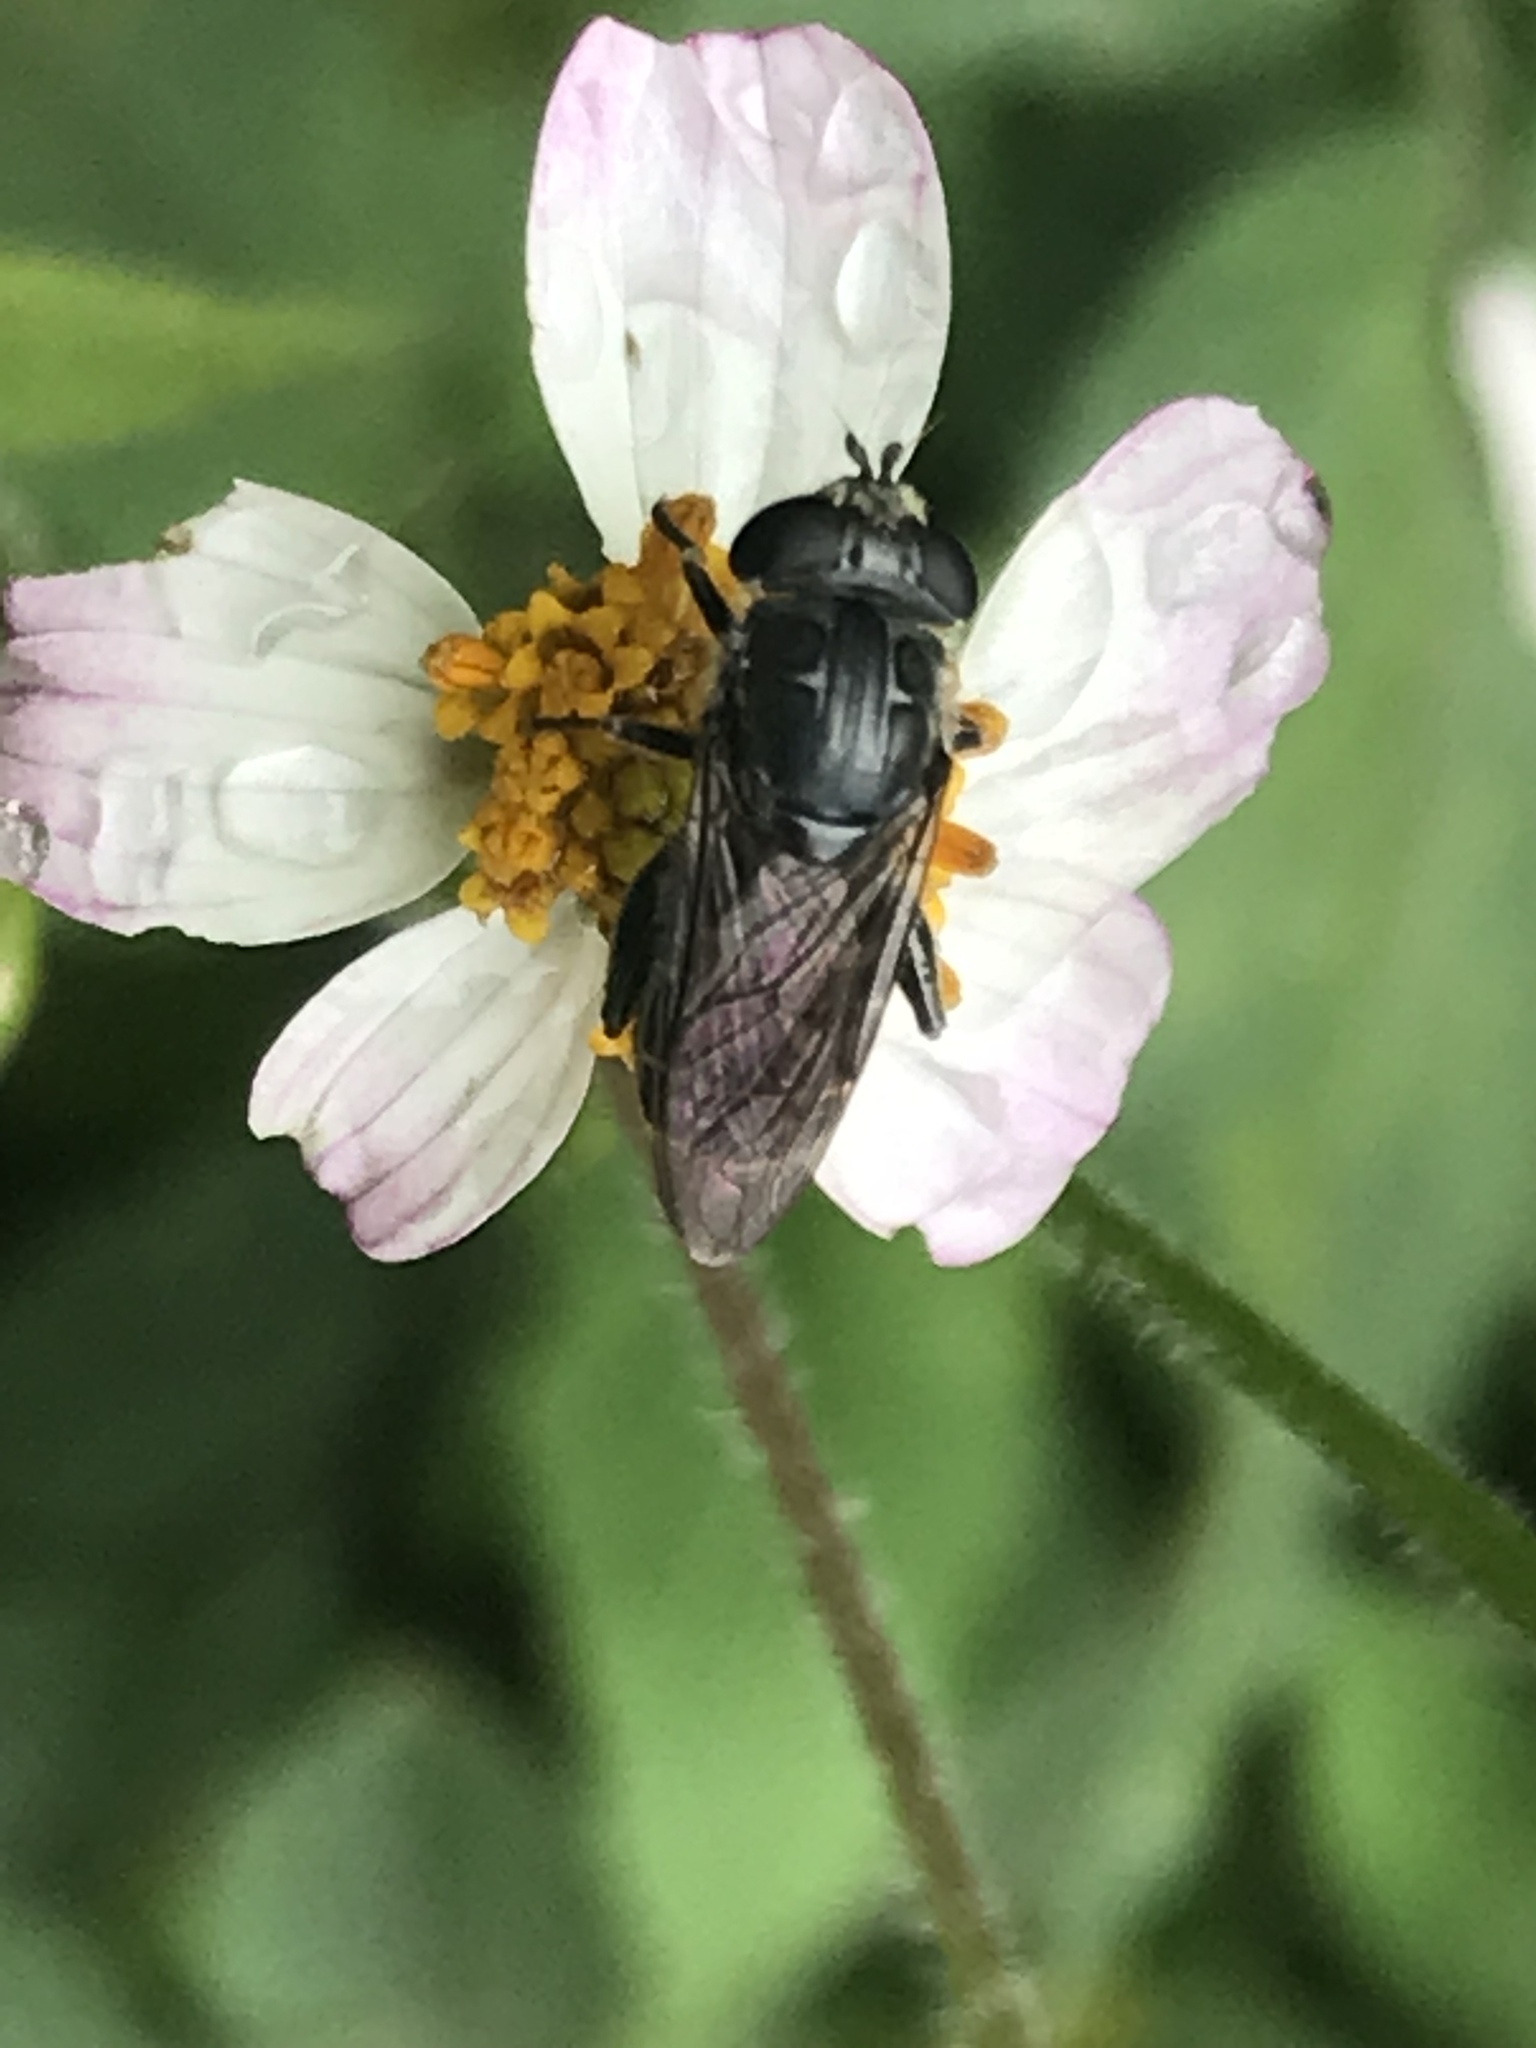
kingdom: Animalia
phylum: Arthropoda
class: Insecta
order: Diptera
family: Syrphidae
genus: Asemosyrphus
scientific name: Asemosyrphus
